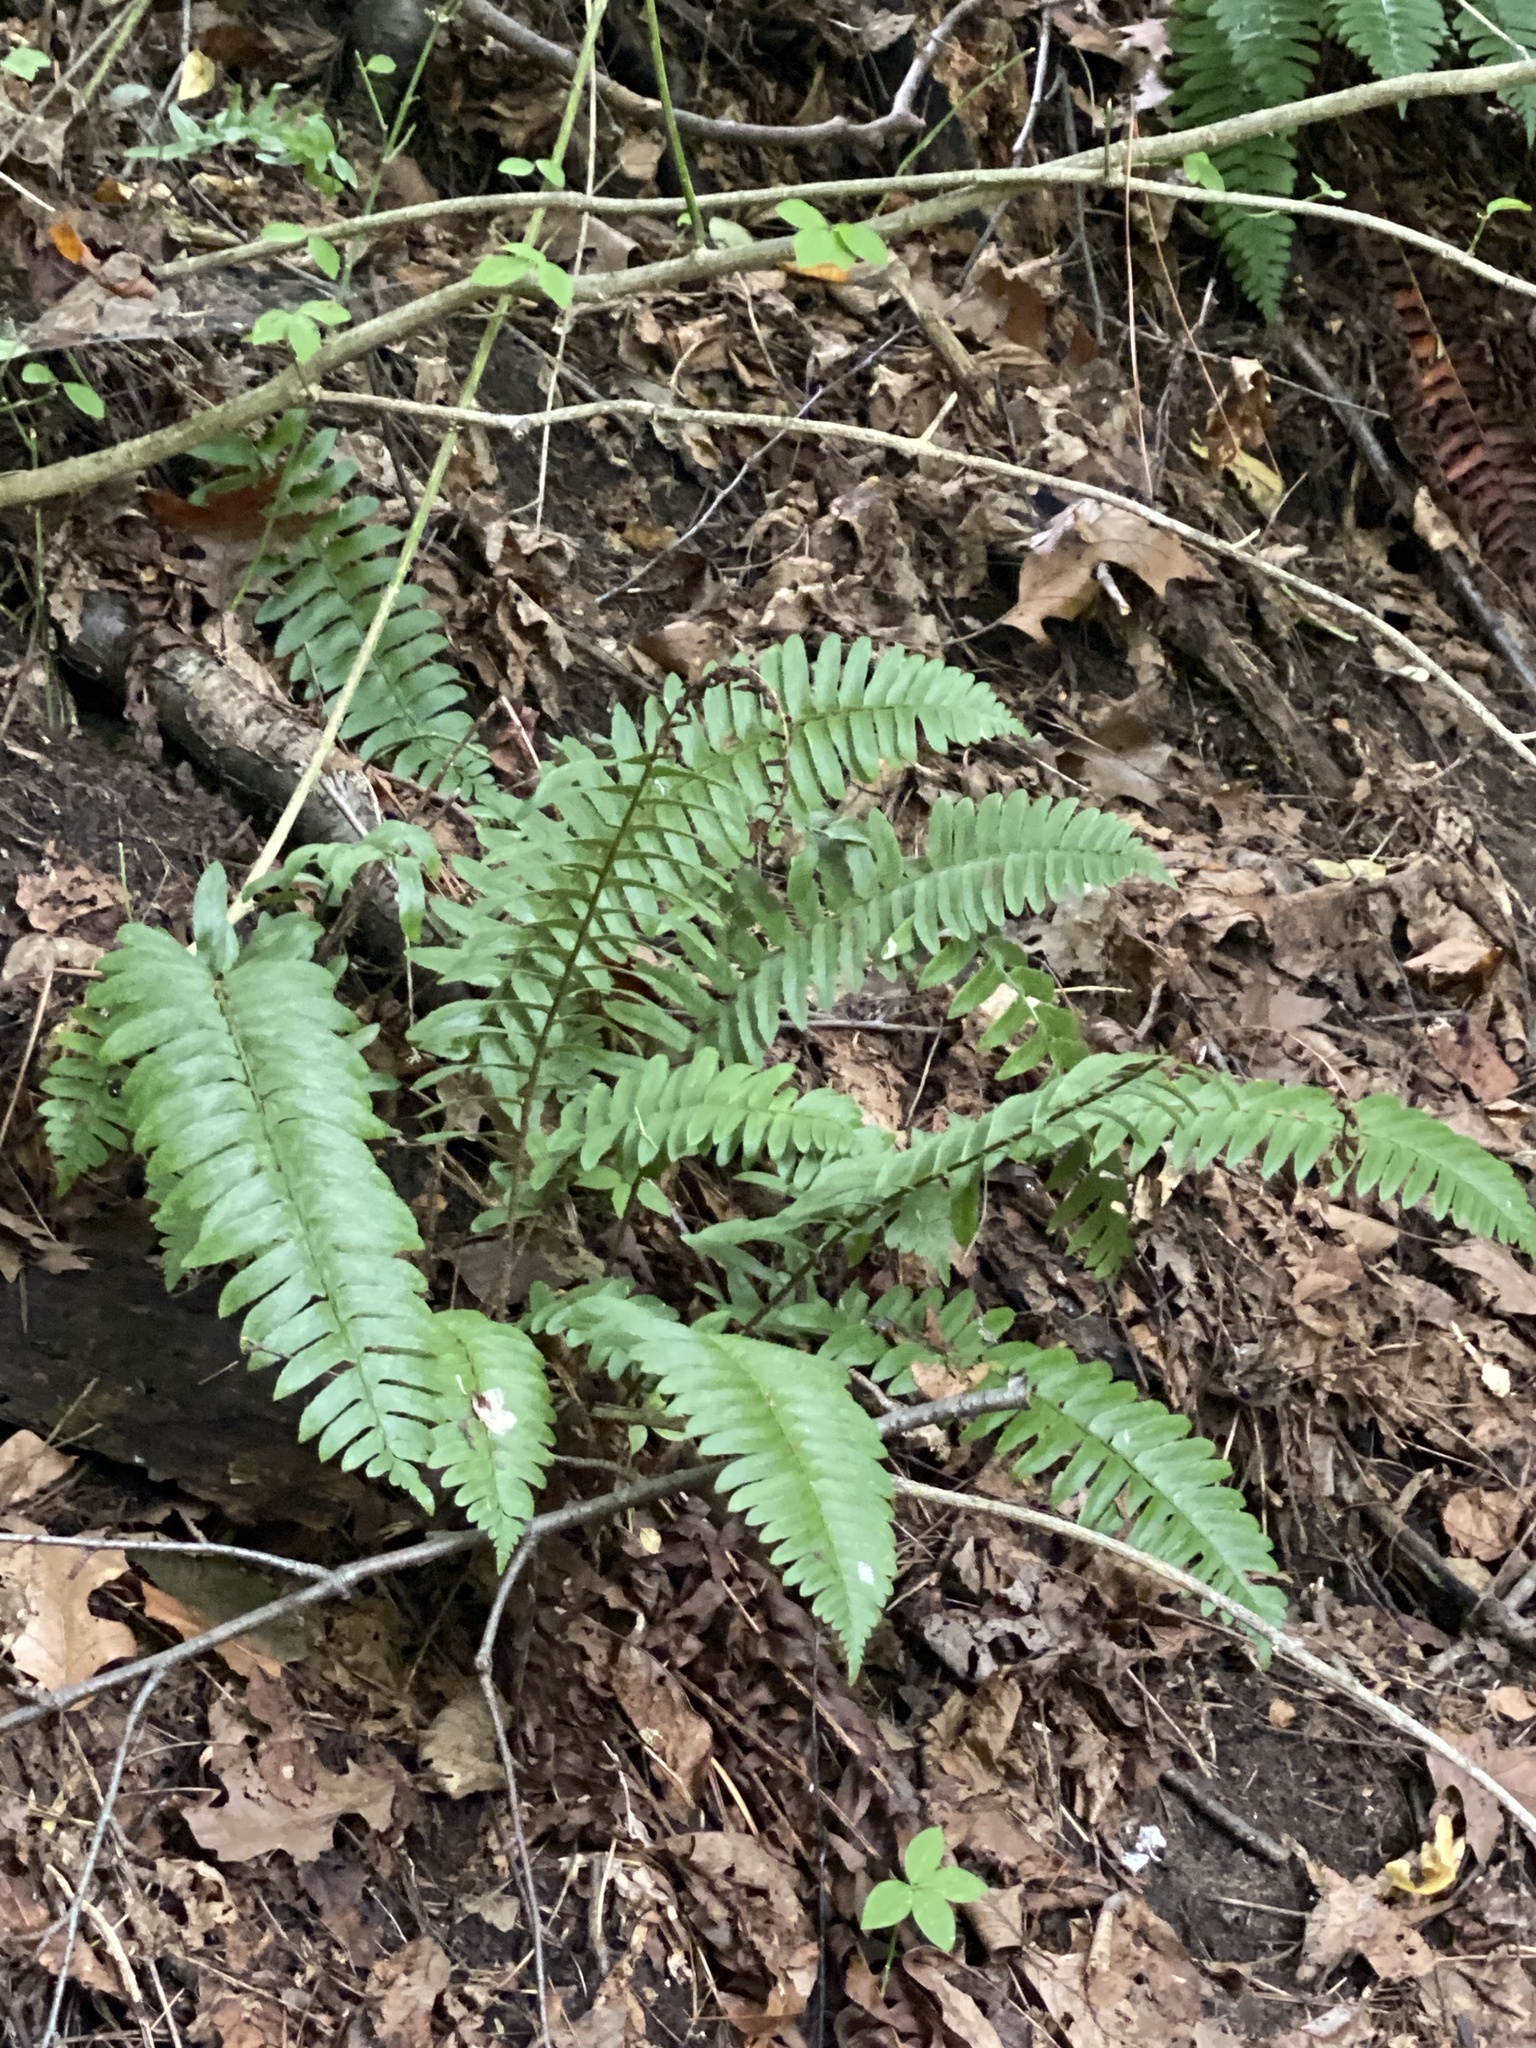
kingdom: Plantae
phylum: Tracheophyta
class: Polypodiopsida
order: Polypodiales
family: Dryopteridaceae
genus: Polystichum
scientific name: Polystichum acrostichoides
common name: Christmas fern
